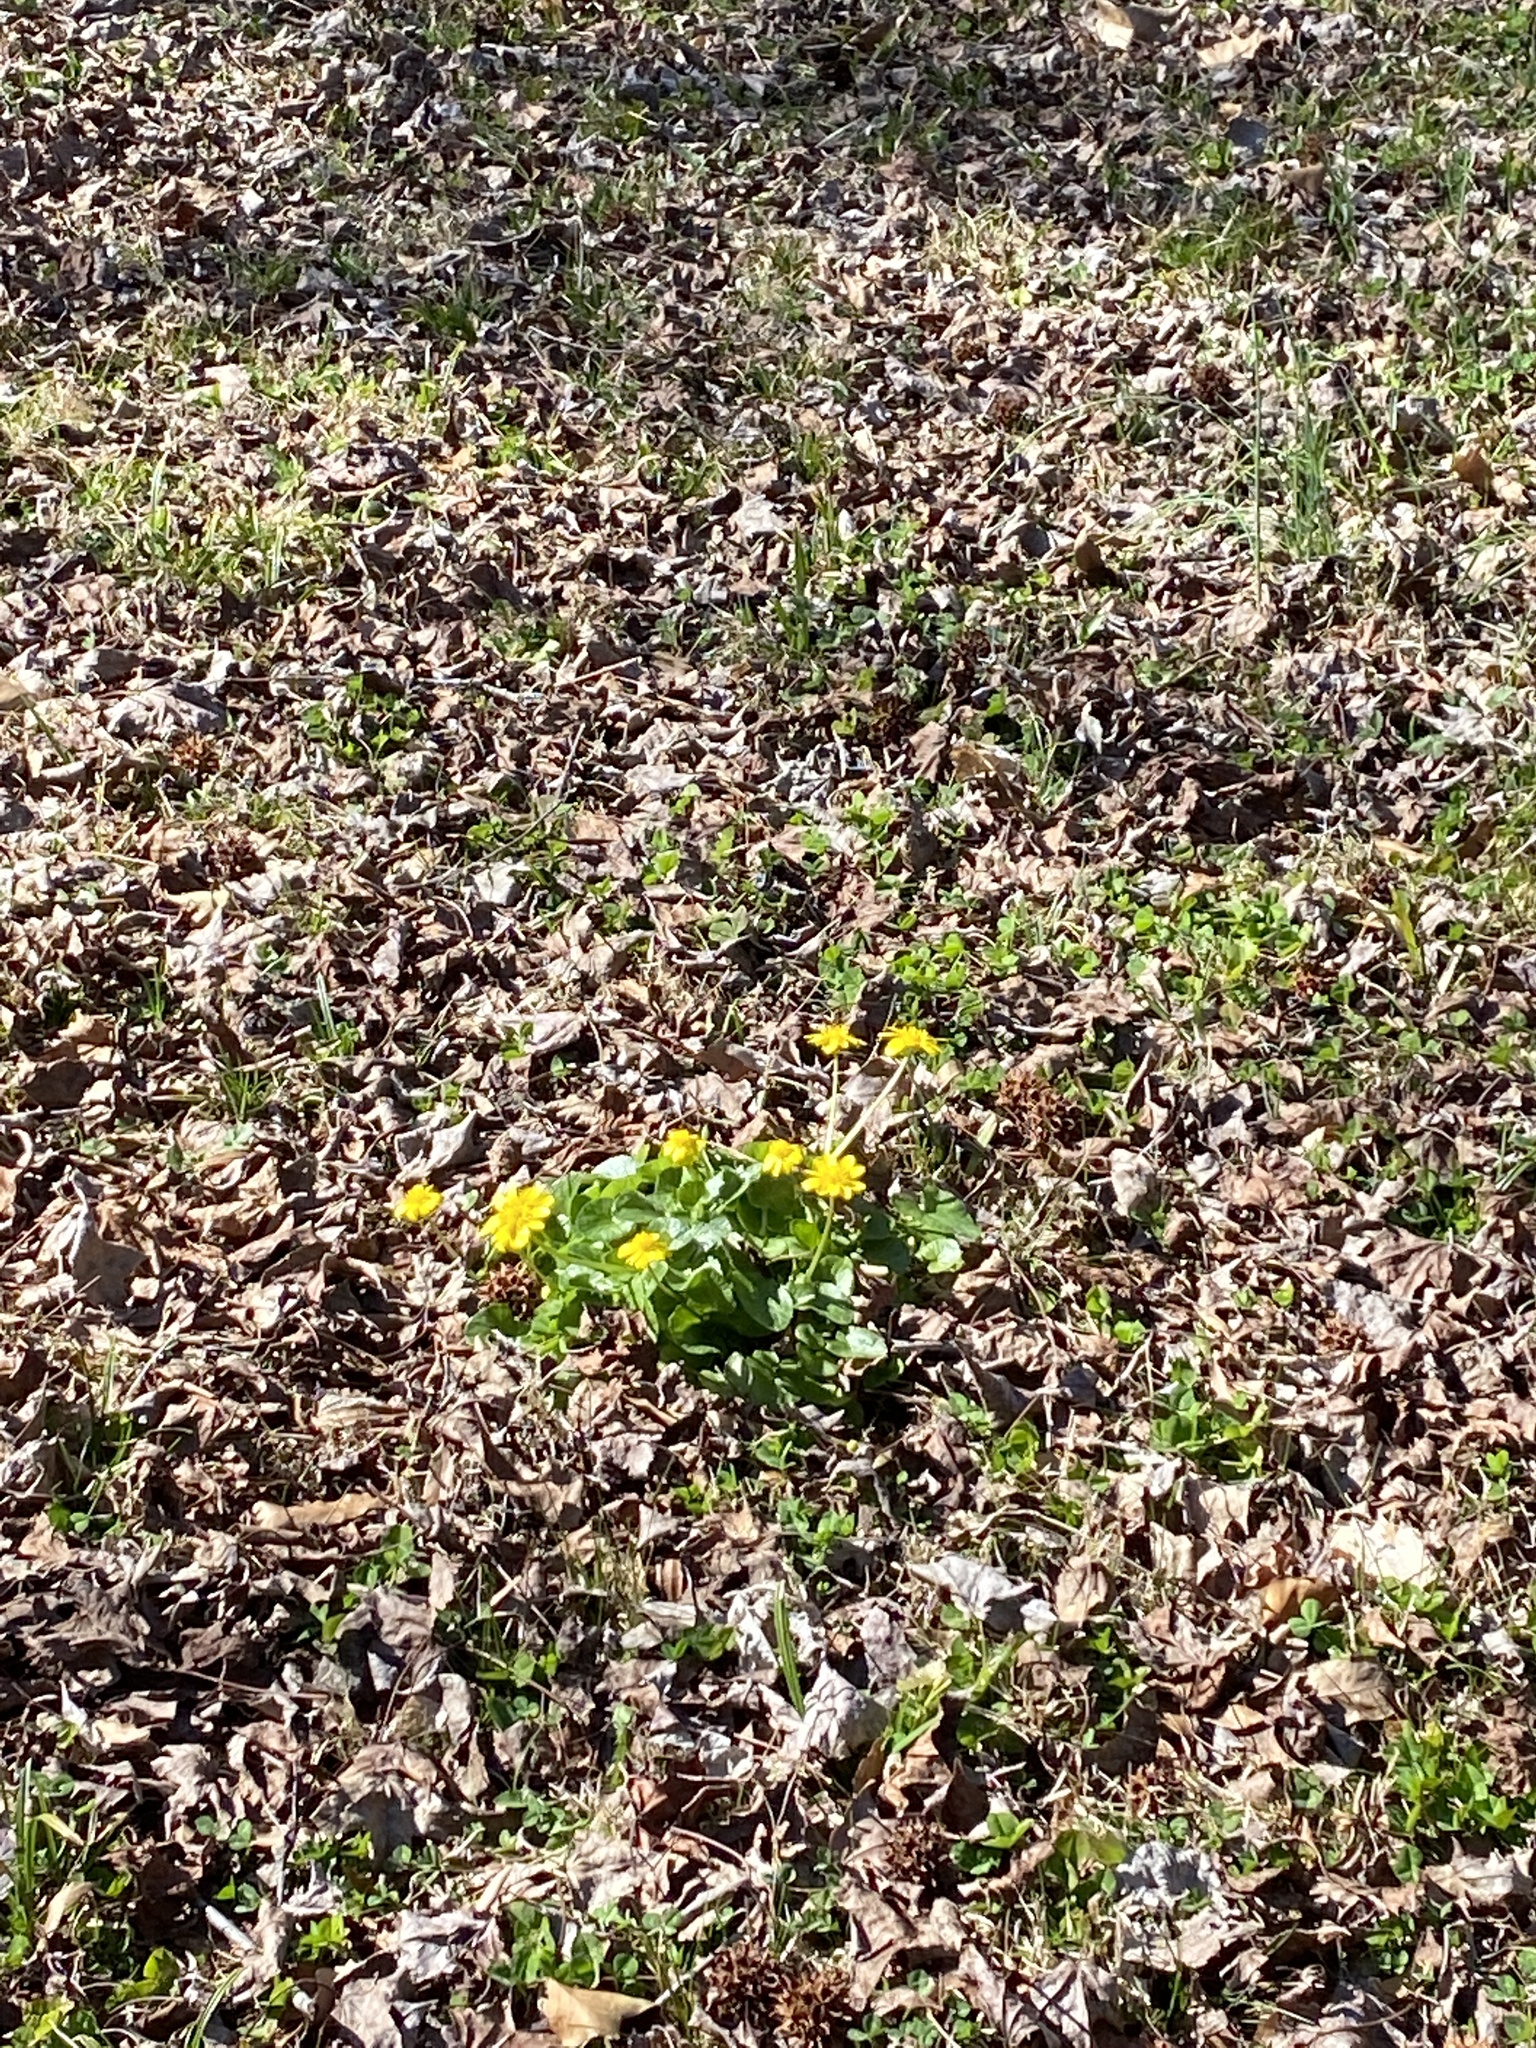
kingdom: Plantae
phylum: Tracheophyta
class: Magnoliopsida
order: Ranunculales
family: Ranunculaceae
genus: Ficaria
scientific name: Ficaria verna
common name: Lesser celandine
